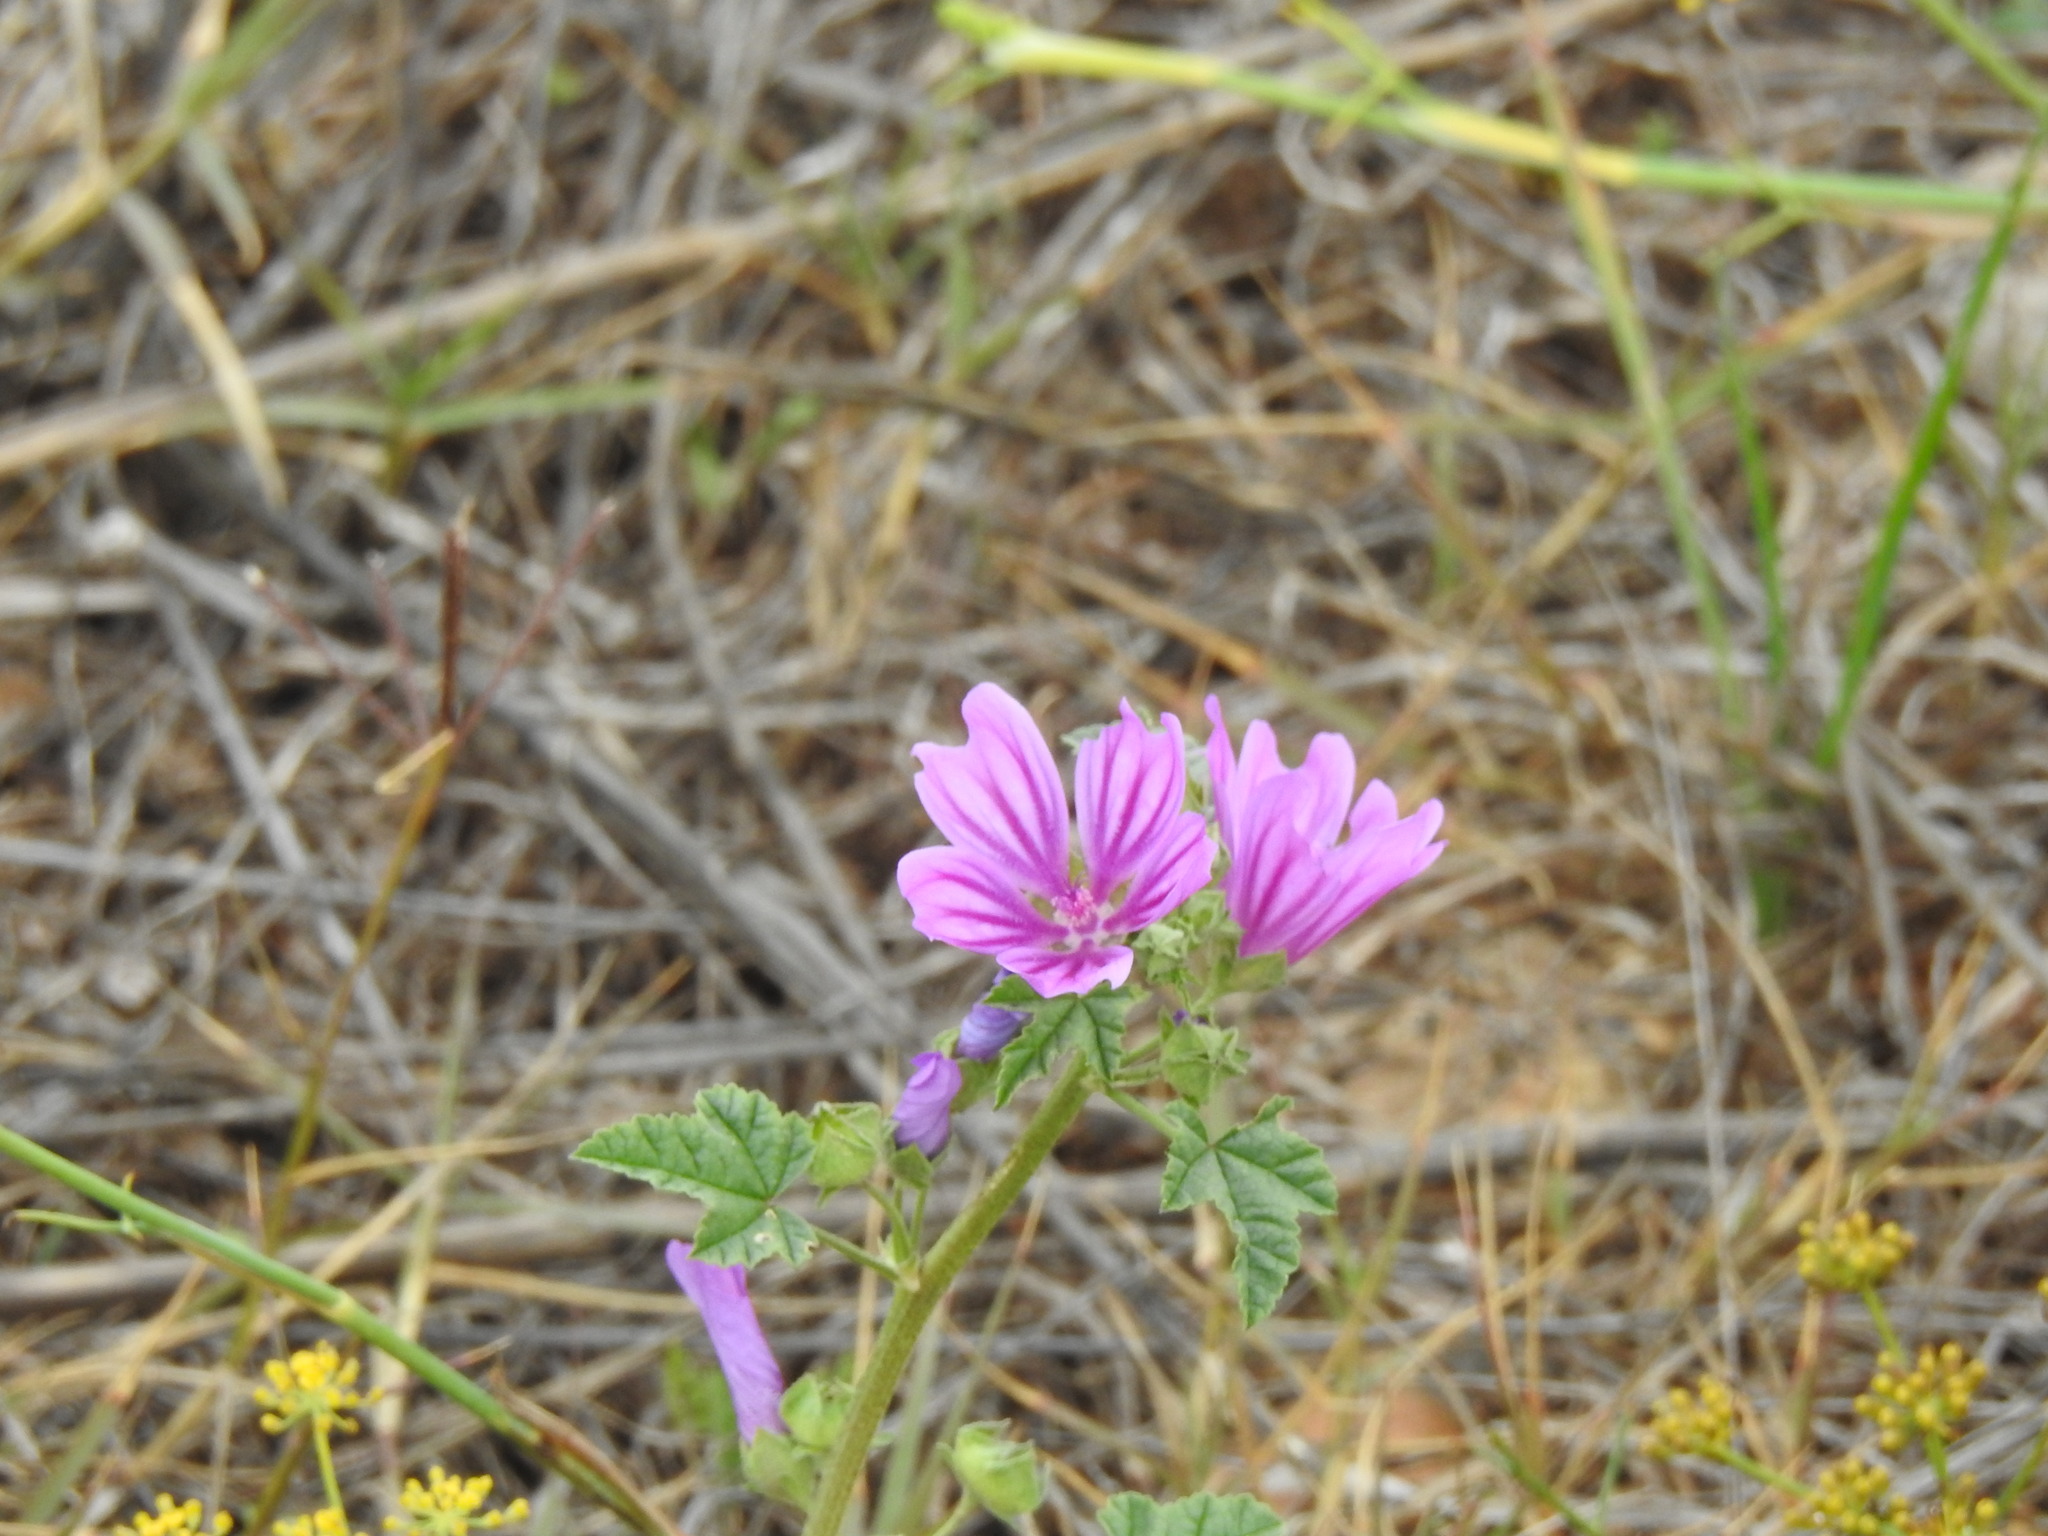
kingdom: Plantae
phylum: Tracheophyta
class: Magnoliopsida
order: Malvales
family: Malvaceae
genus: Malva
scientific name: Malva sylvestris
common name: Common mallow
